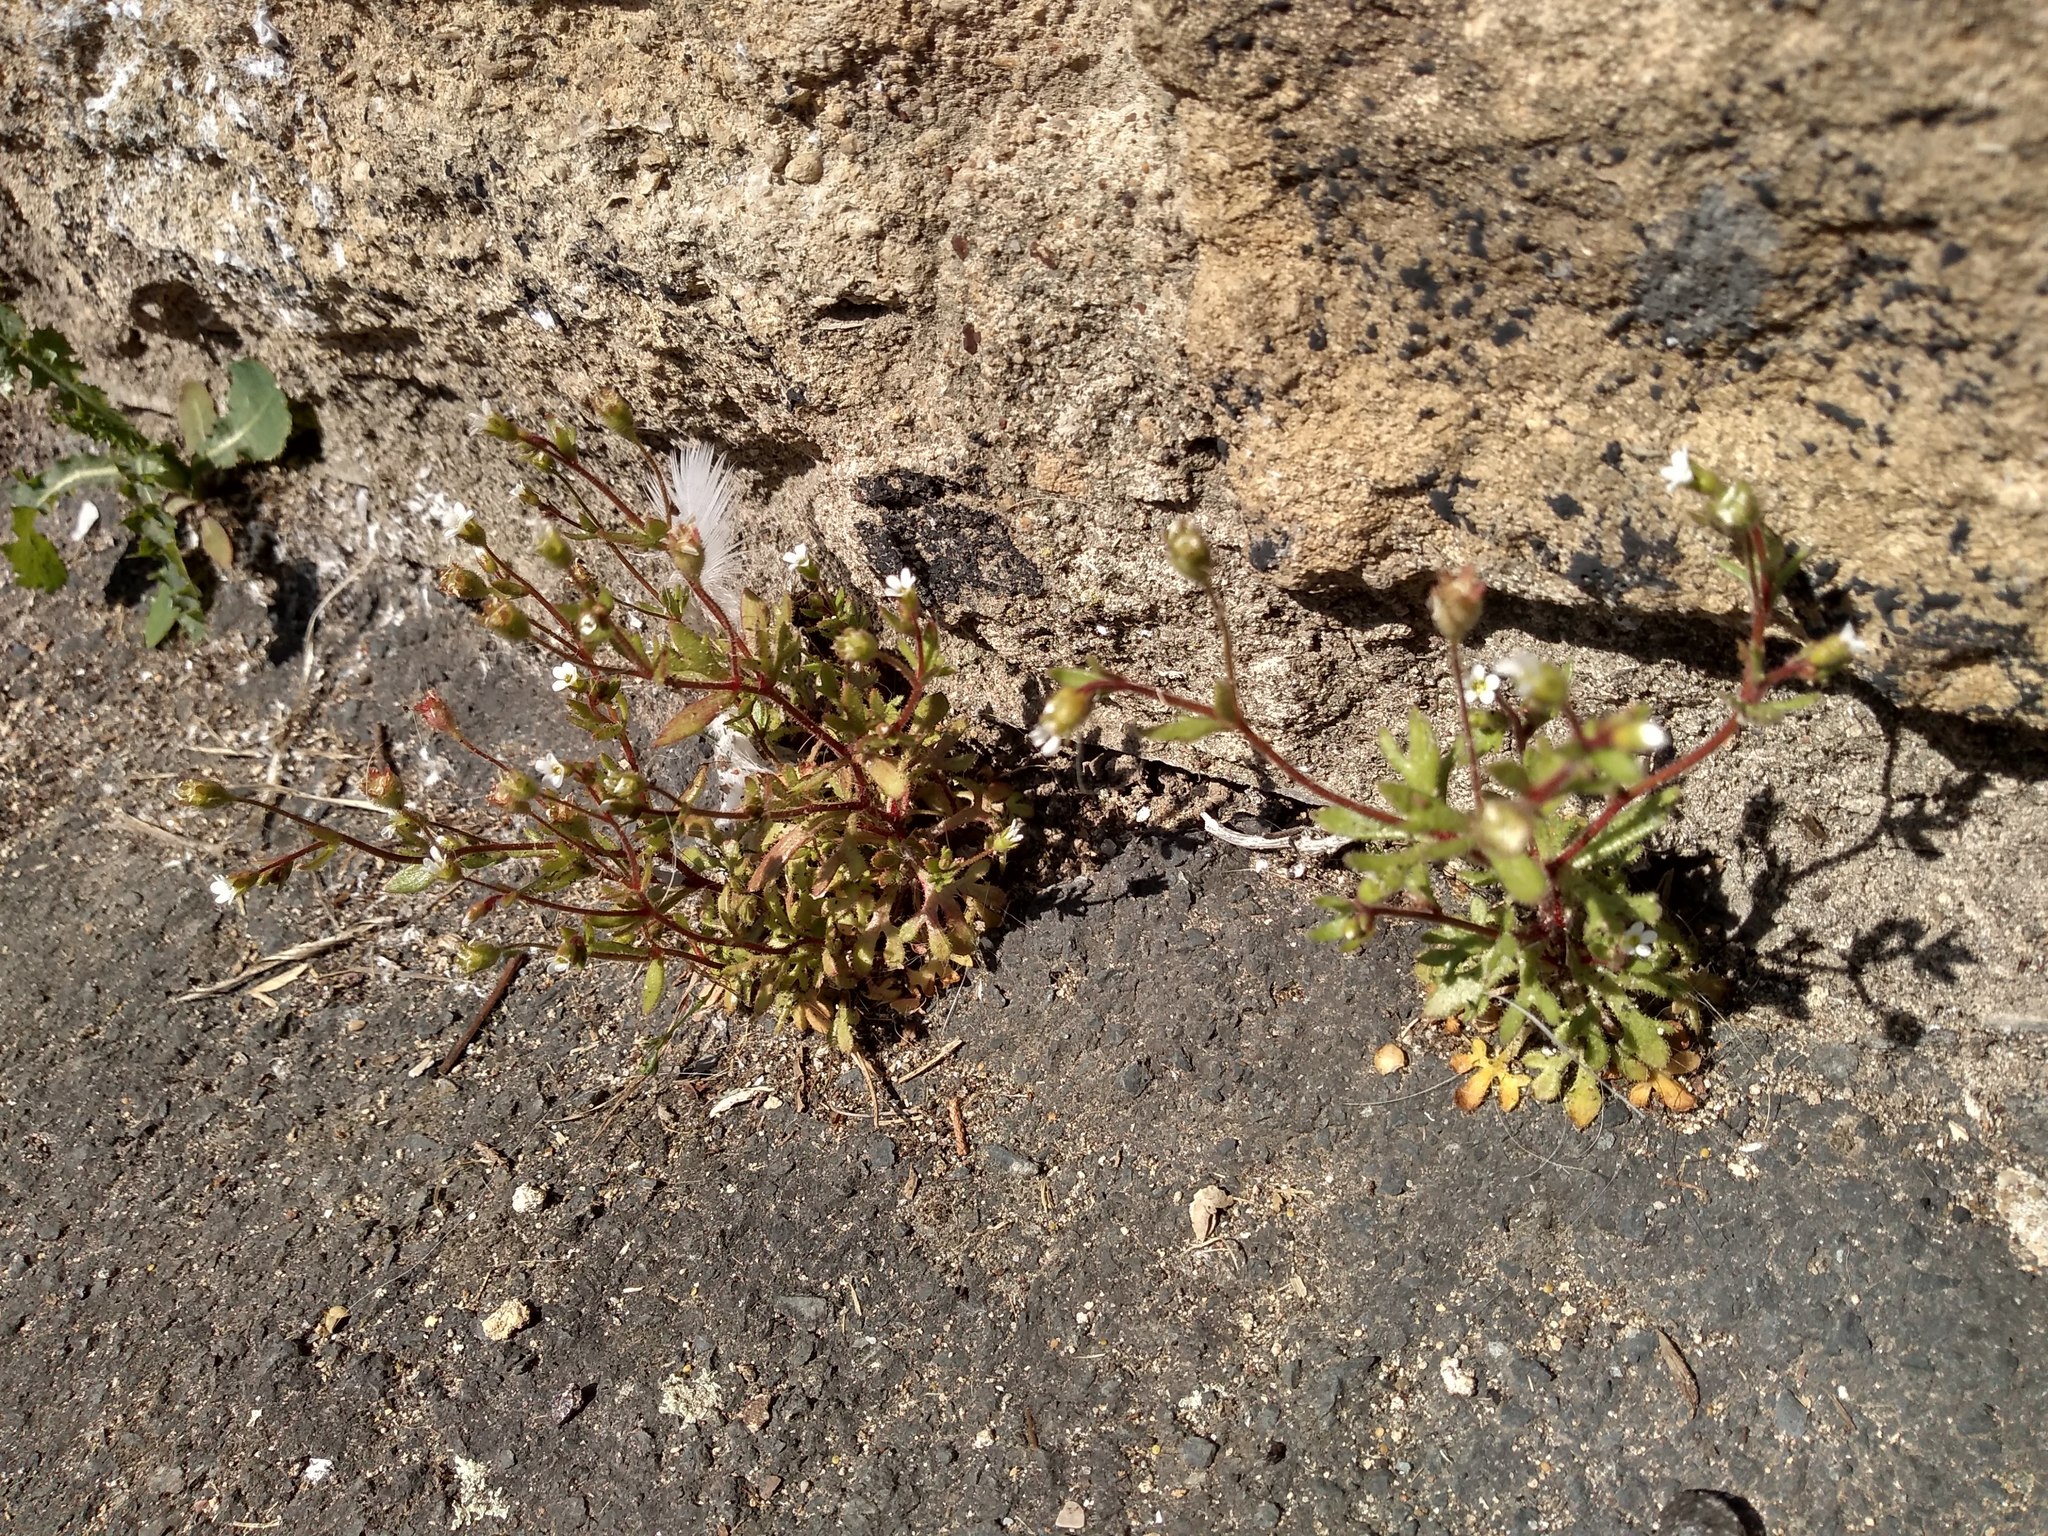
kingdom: Plantae
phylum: Tracheophyta
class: Magnoliopsida
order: Saxifragales
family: Saxifragaceae
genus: Saxifraga
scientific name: Saxifraga tridactylites
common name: Rue-leaved saxifrage
